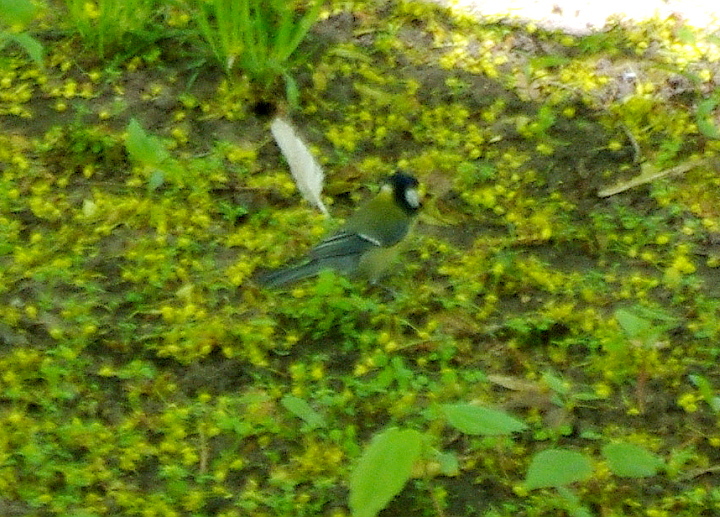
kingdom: Animalia
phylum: Chordata
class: Aves
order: Passeriformes
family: Paridae
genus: Parus
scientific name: Parus major
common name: Great tit
